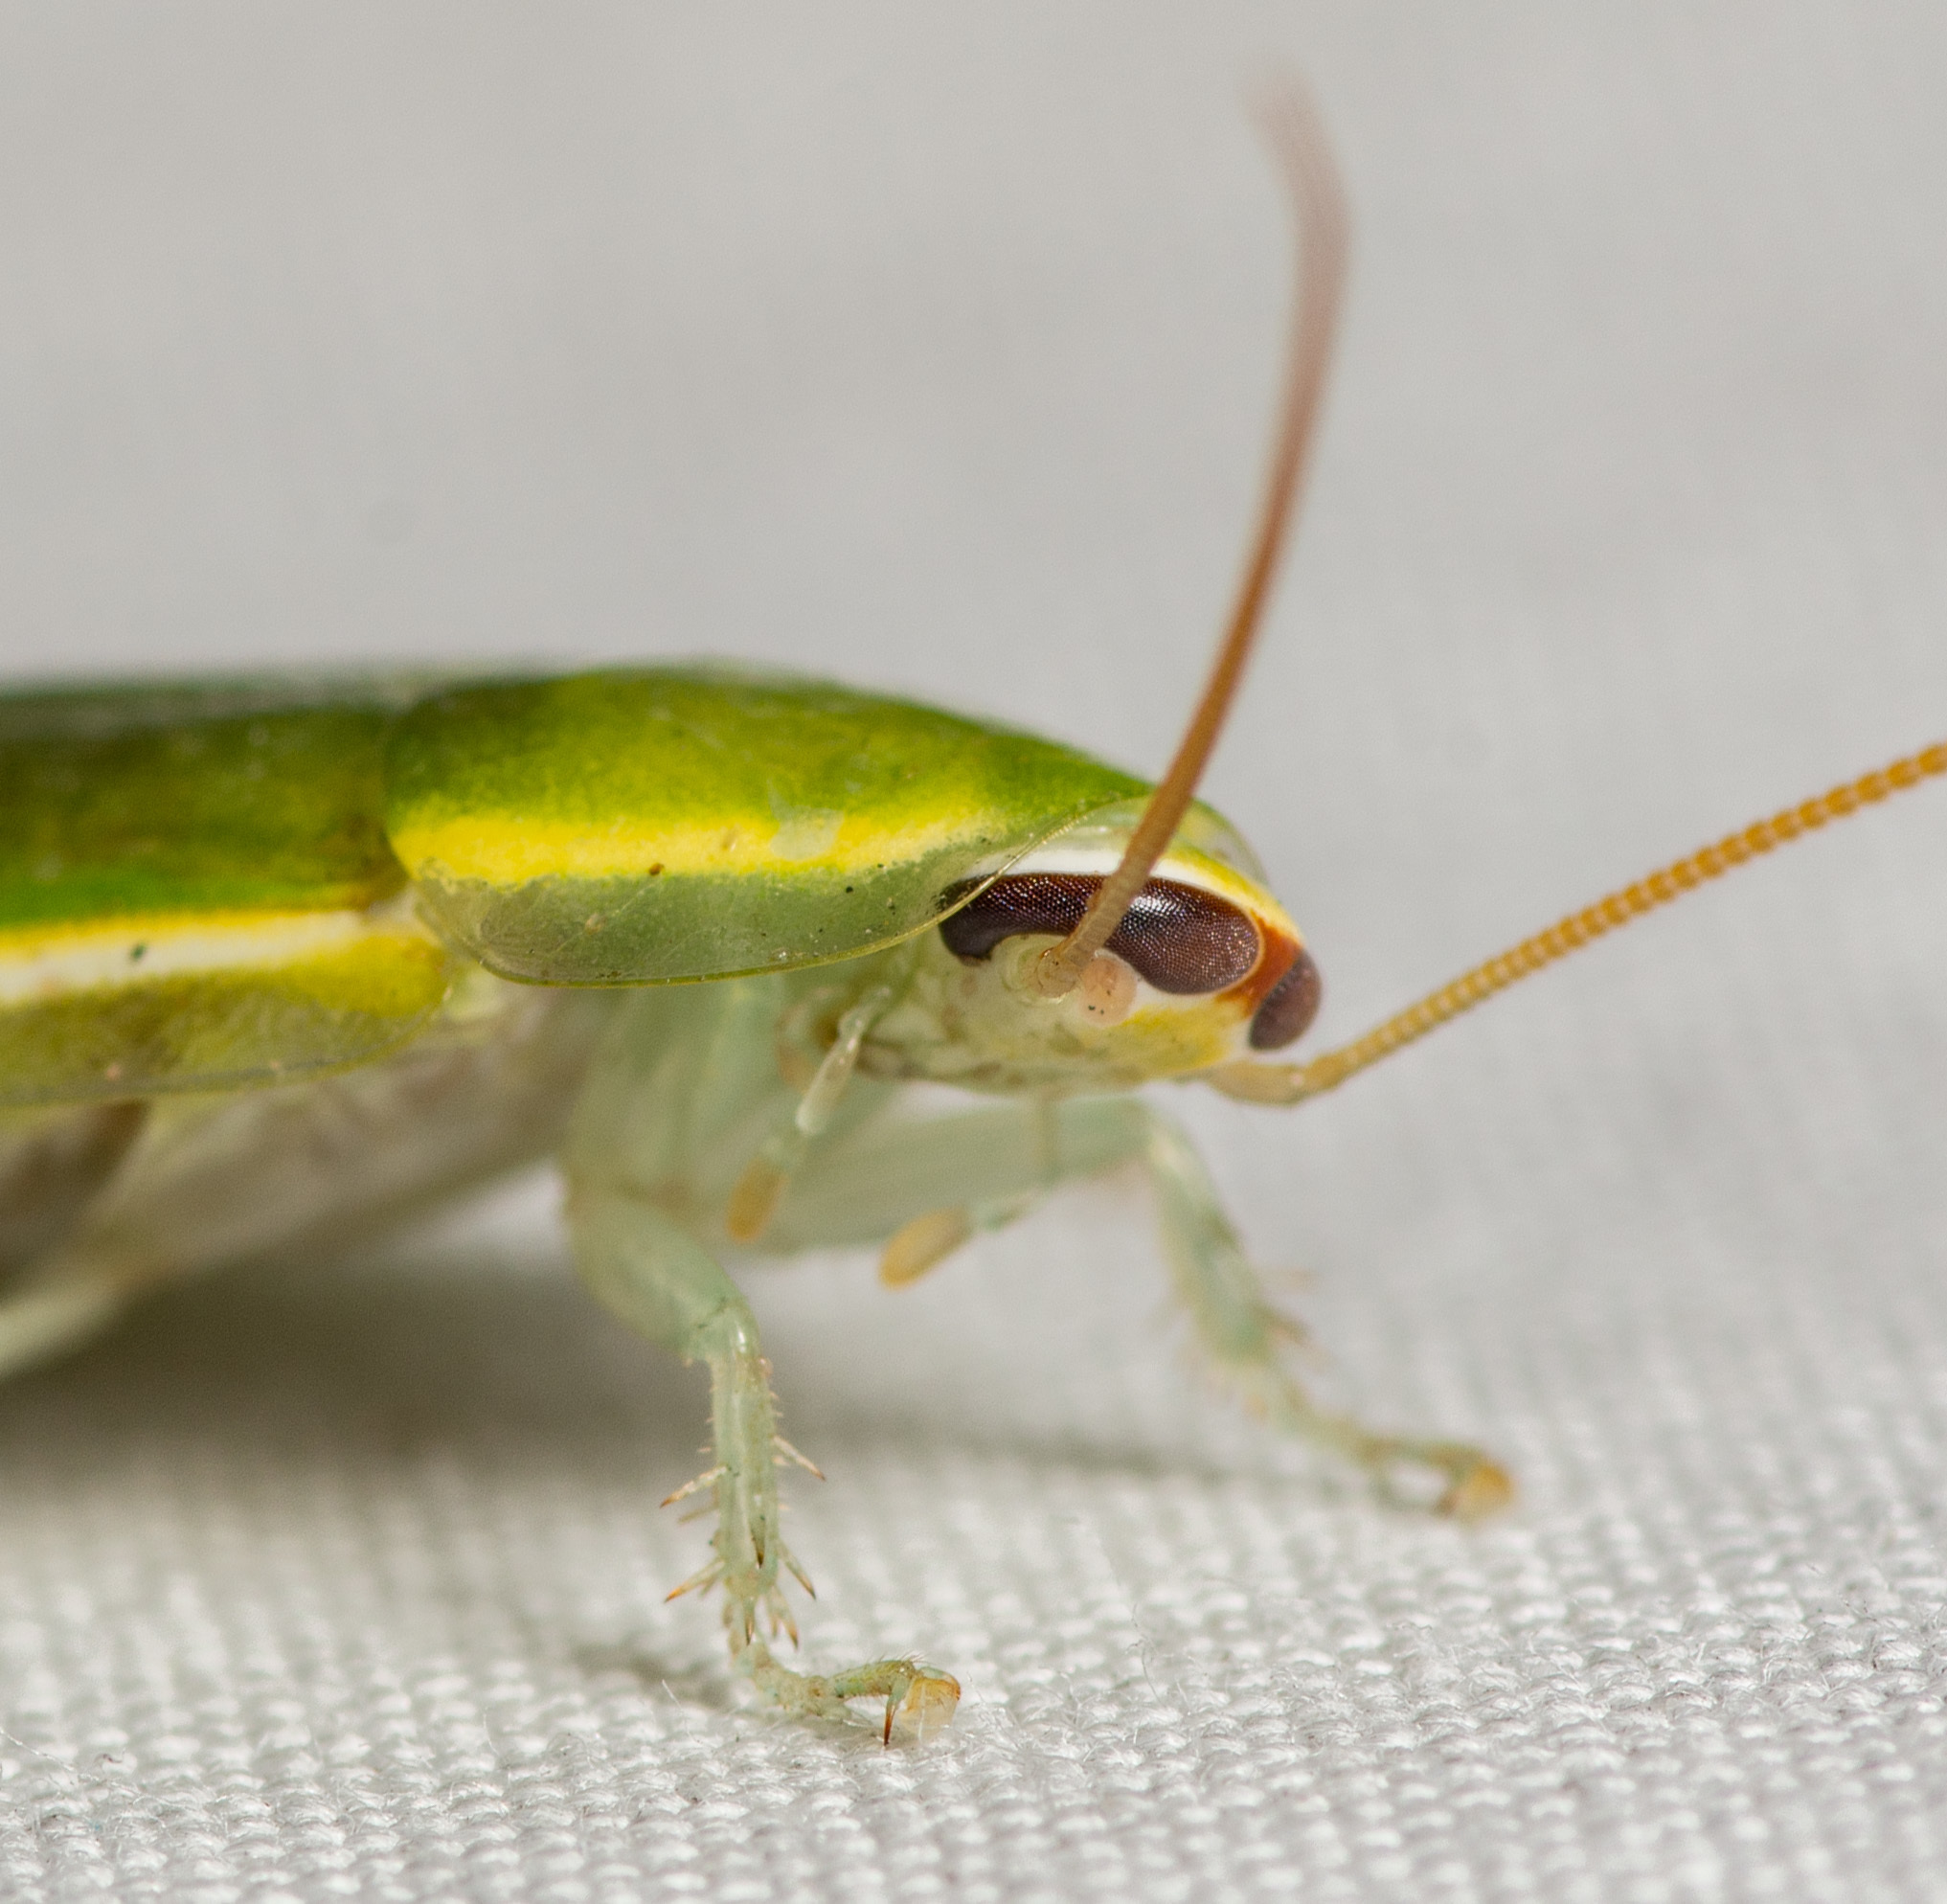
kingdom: Animalia
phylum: Arthropoda
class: Insecta
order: Blattodea
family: Blaberidae
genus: Panchlora
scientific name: Panchlora nivea
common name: Cuban cockroach
